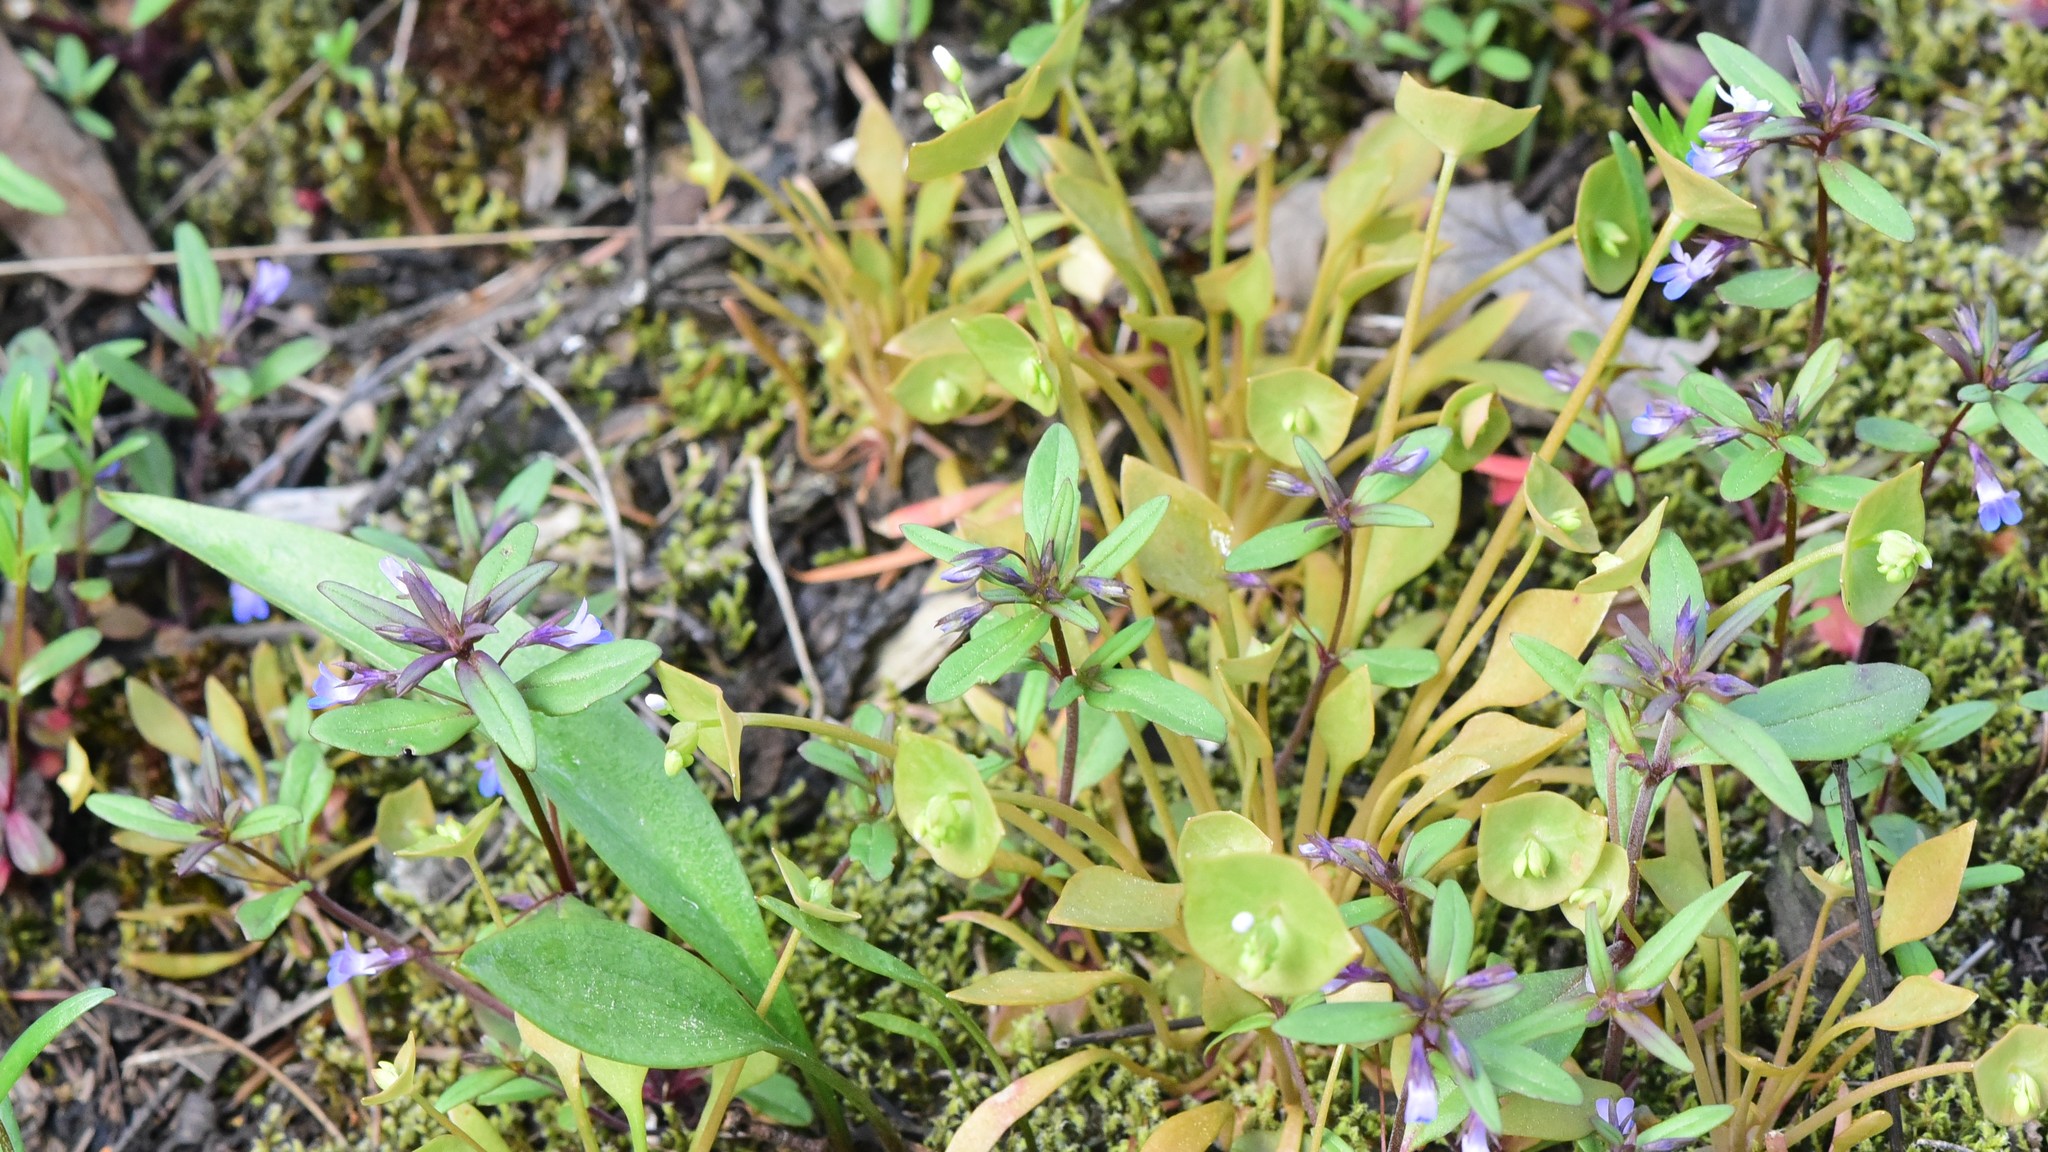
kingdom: Plantae
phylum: Tracheophyta
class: Magnoliopsida
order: Lamiales
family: Plantaginaceae
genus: Collinsia
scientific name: Collinsia parviflora
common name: Blue-lips
